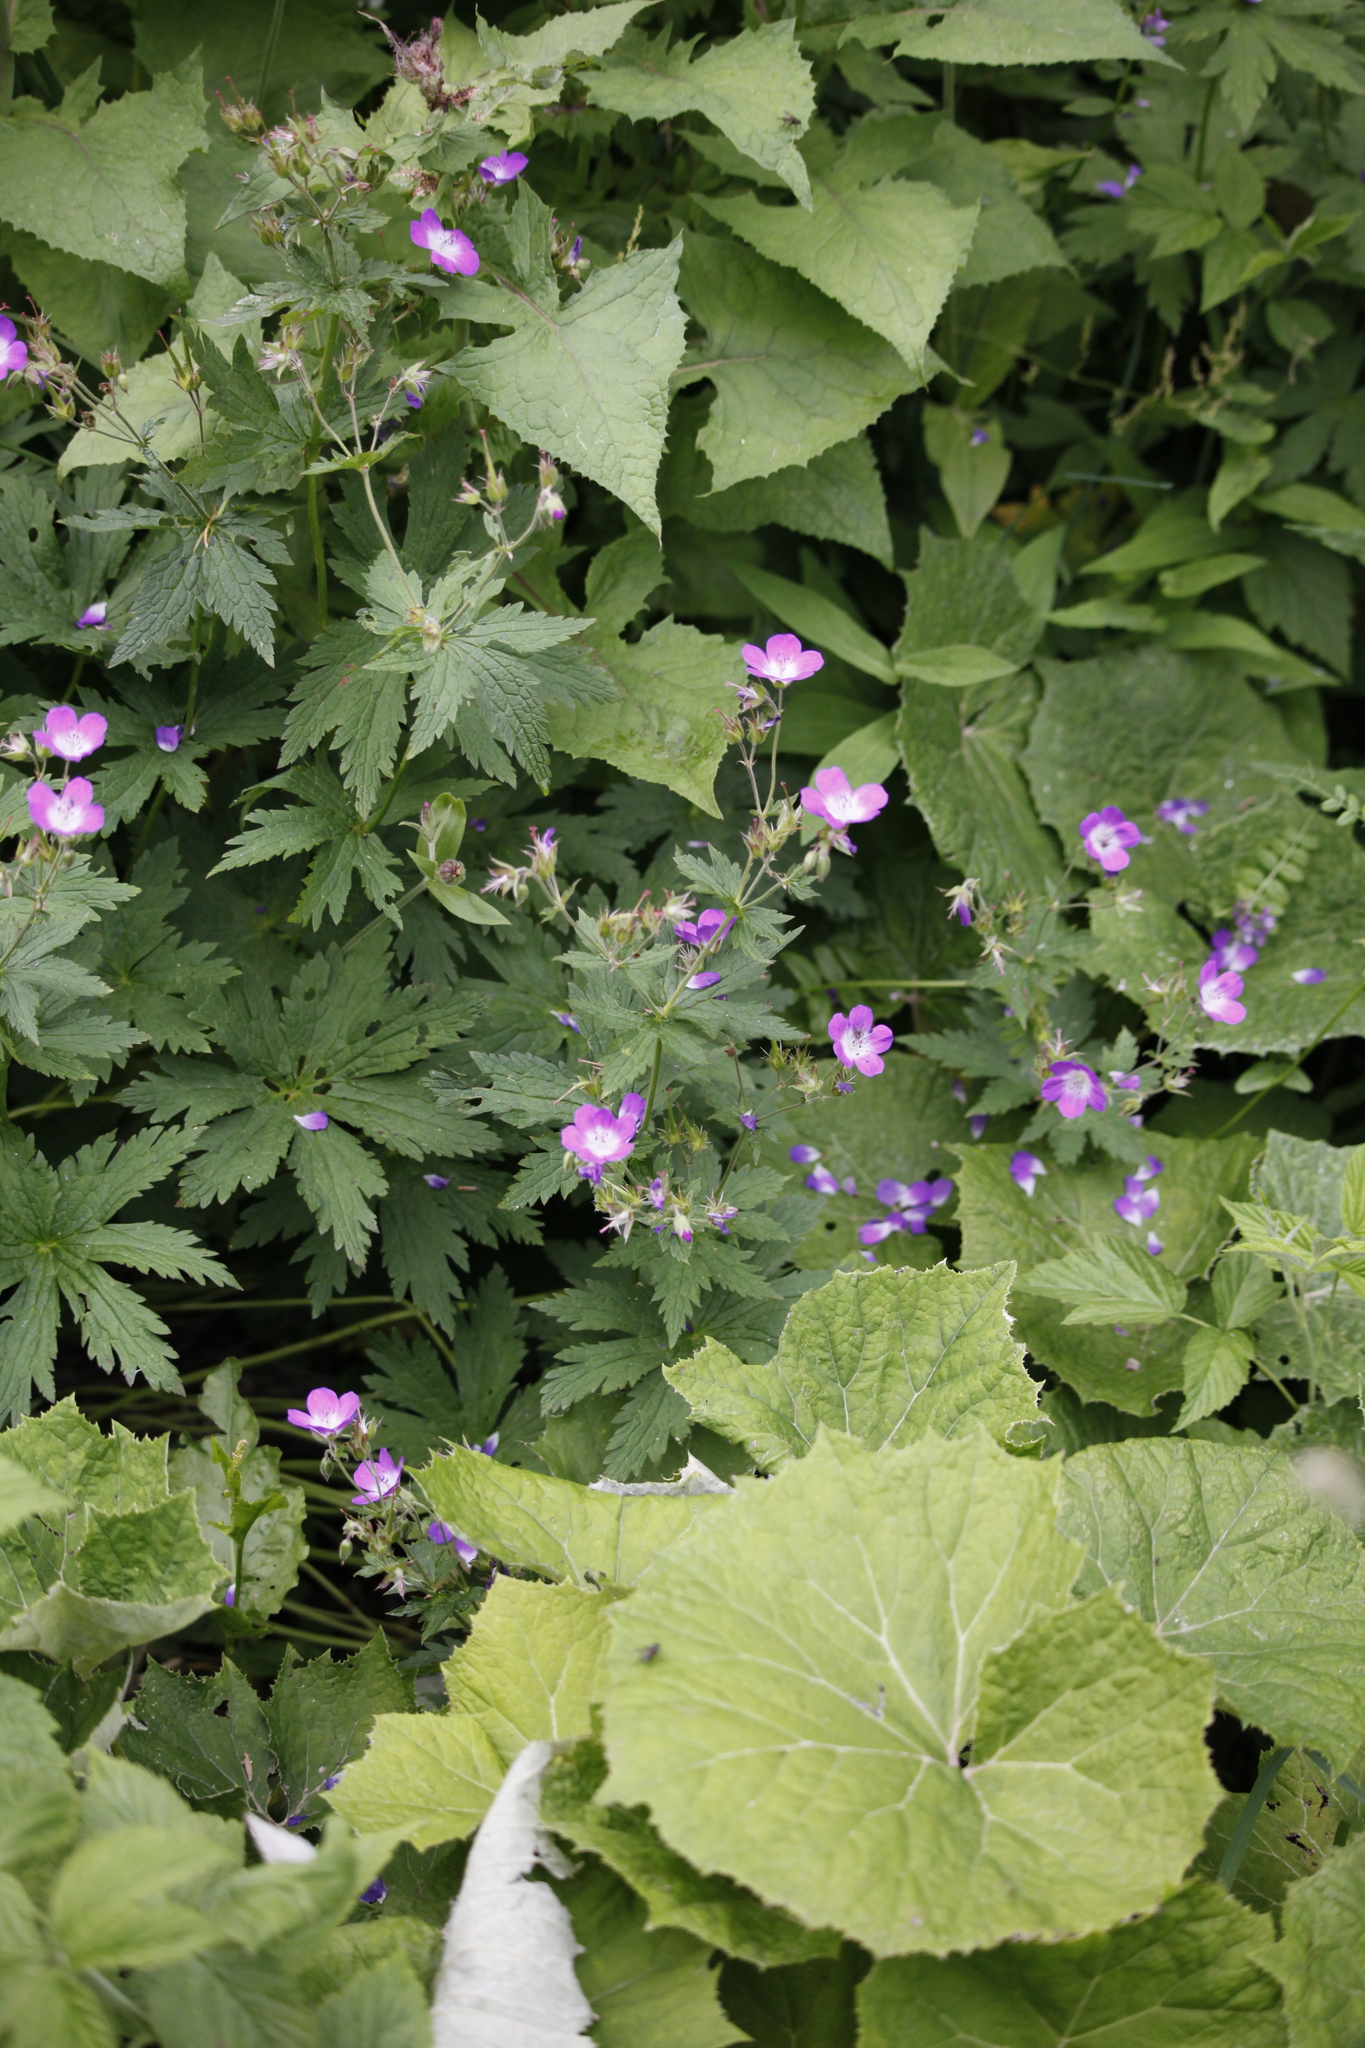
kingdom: Plantae
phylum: Tracheophyta
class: Magnoliopsida
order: Geraniales
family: Geraniaceae
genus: Geranium
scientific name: Geranium sylvaticum
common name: Wood crane's-bill
